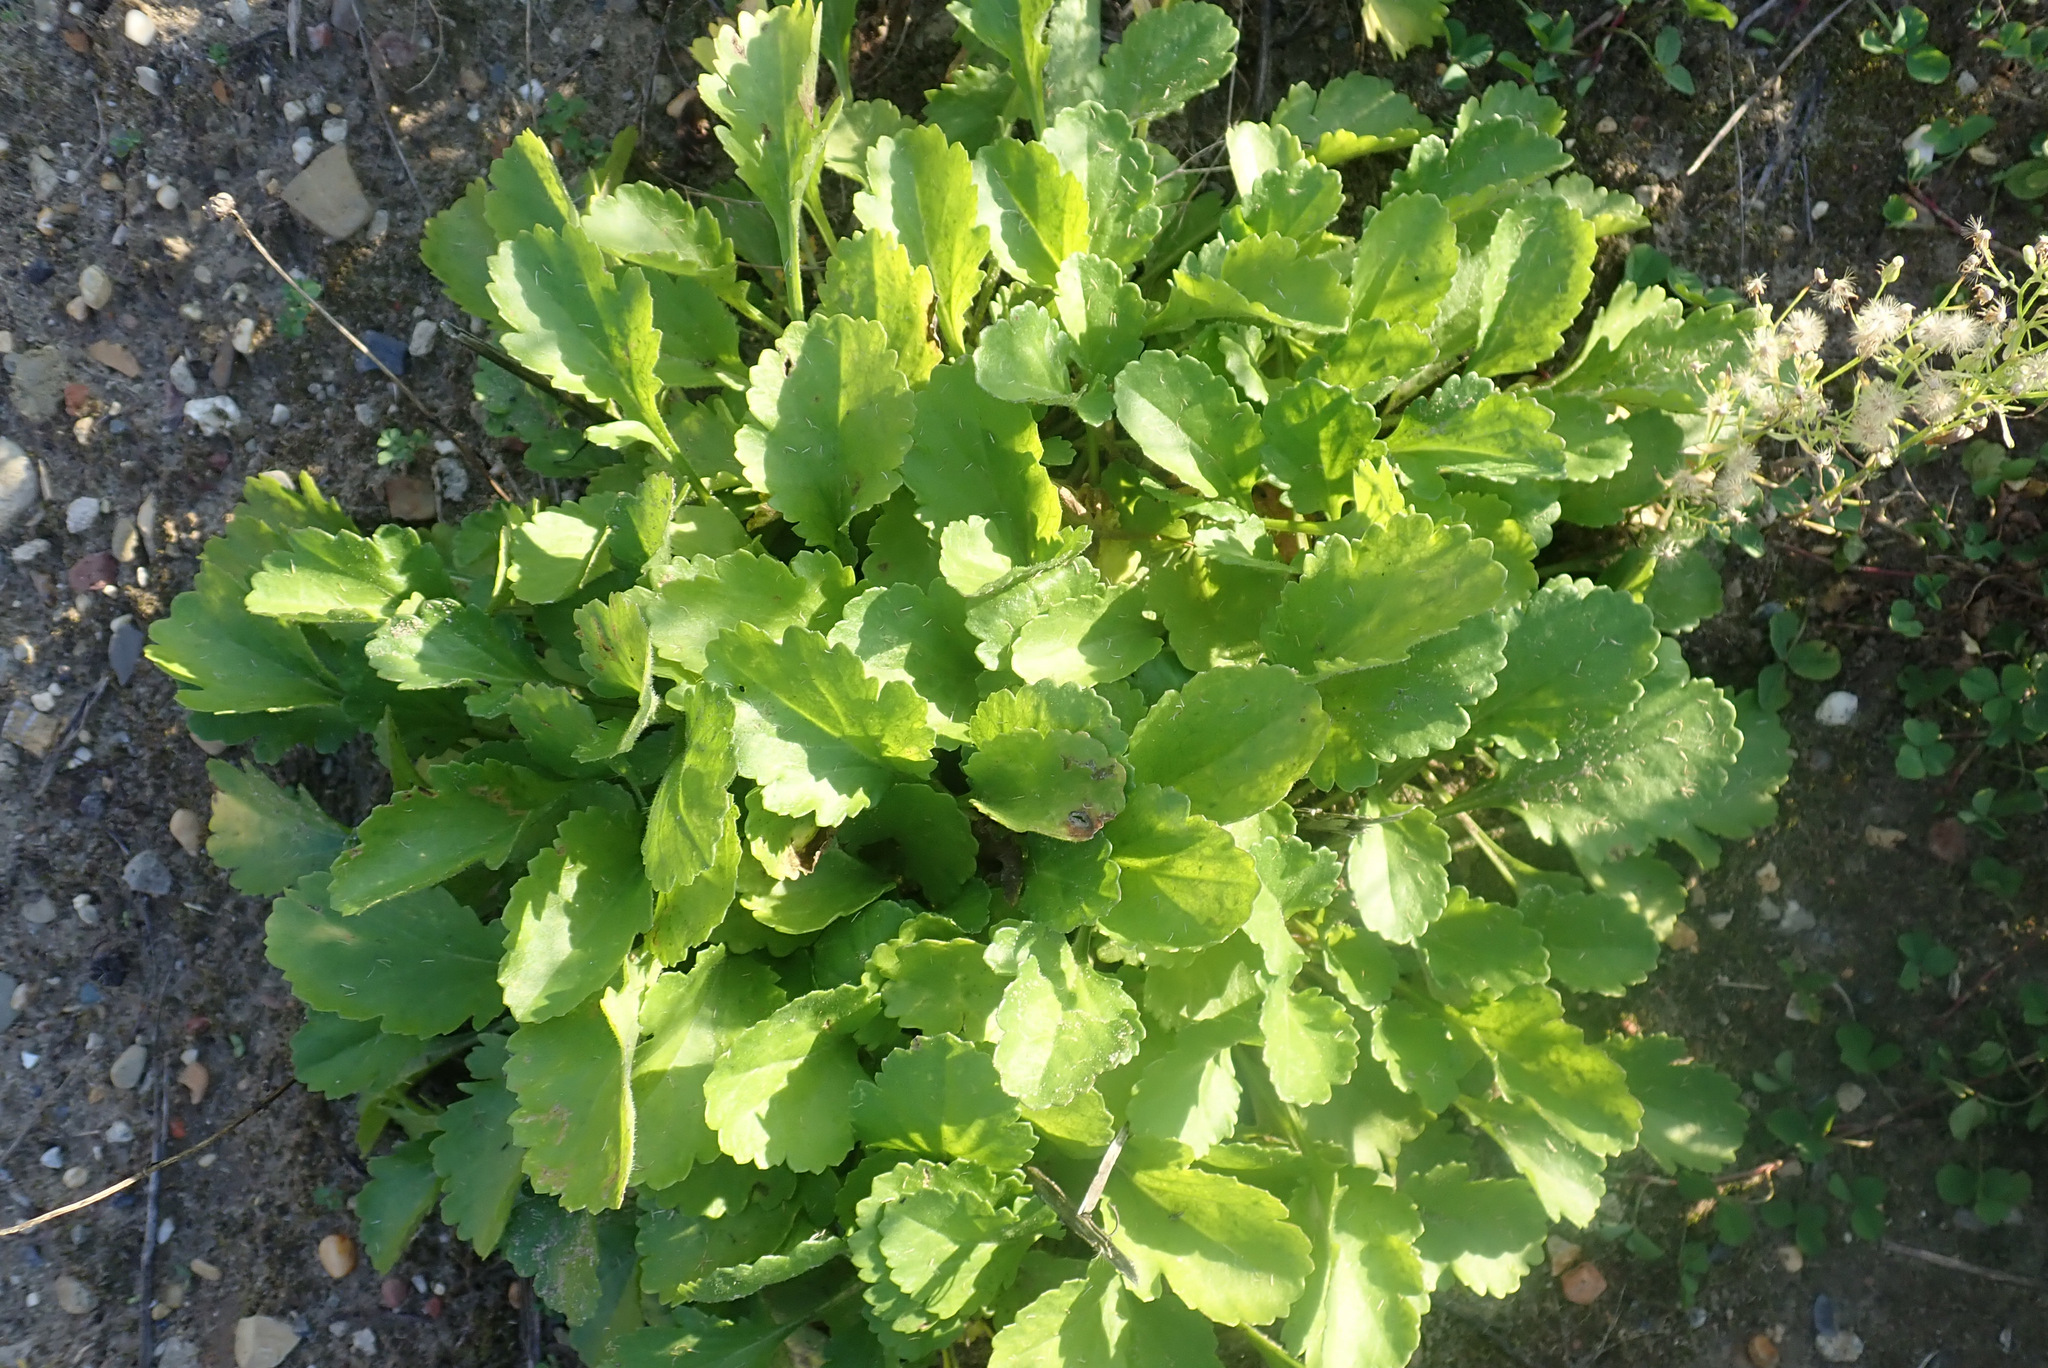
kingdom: Plantae
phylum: Tracheophyta
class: Magnoliopsida
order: Asterales
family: Asteraceae
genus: Leucanthemum
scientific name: Leucanthemum vulgare
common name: Oxeye daisy
